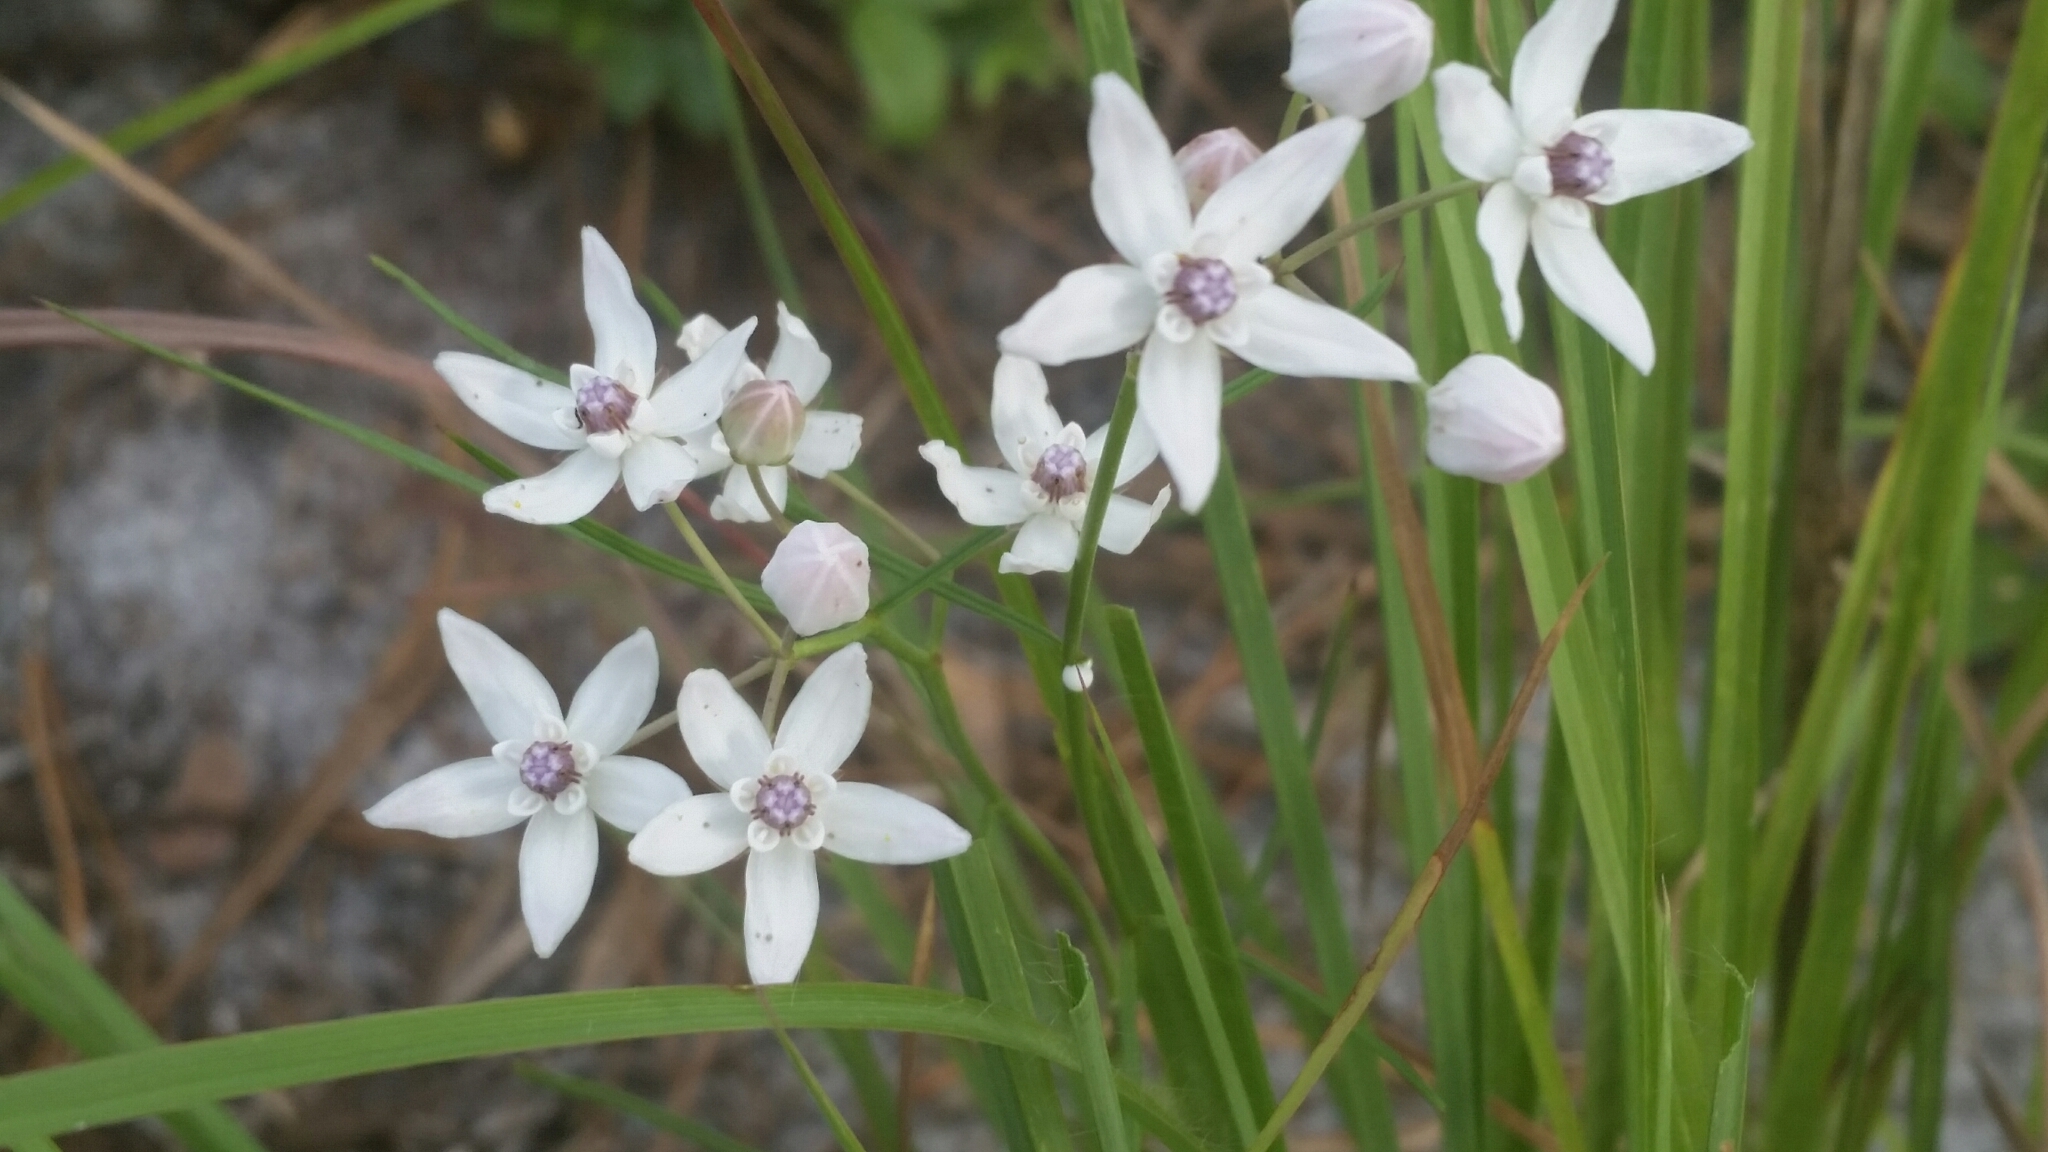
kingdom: Plantae
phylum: Tracheophyta
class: Magnoliopsida
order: Gentianales
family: Apocynaceae
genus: Asclepias
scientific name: Asclepias feayi
